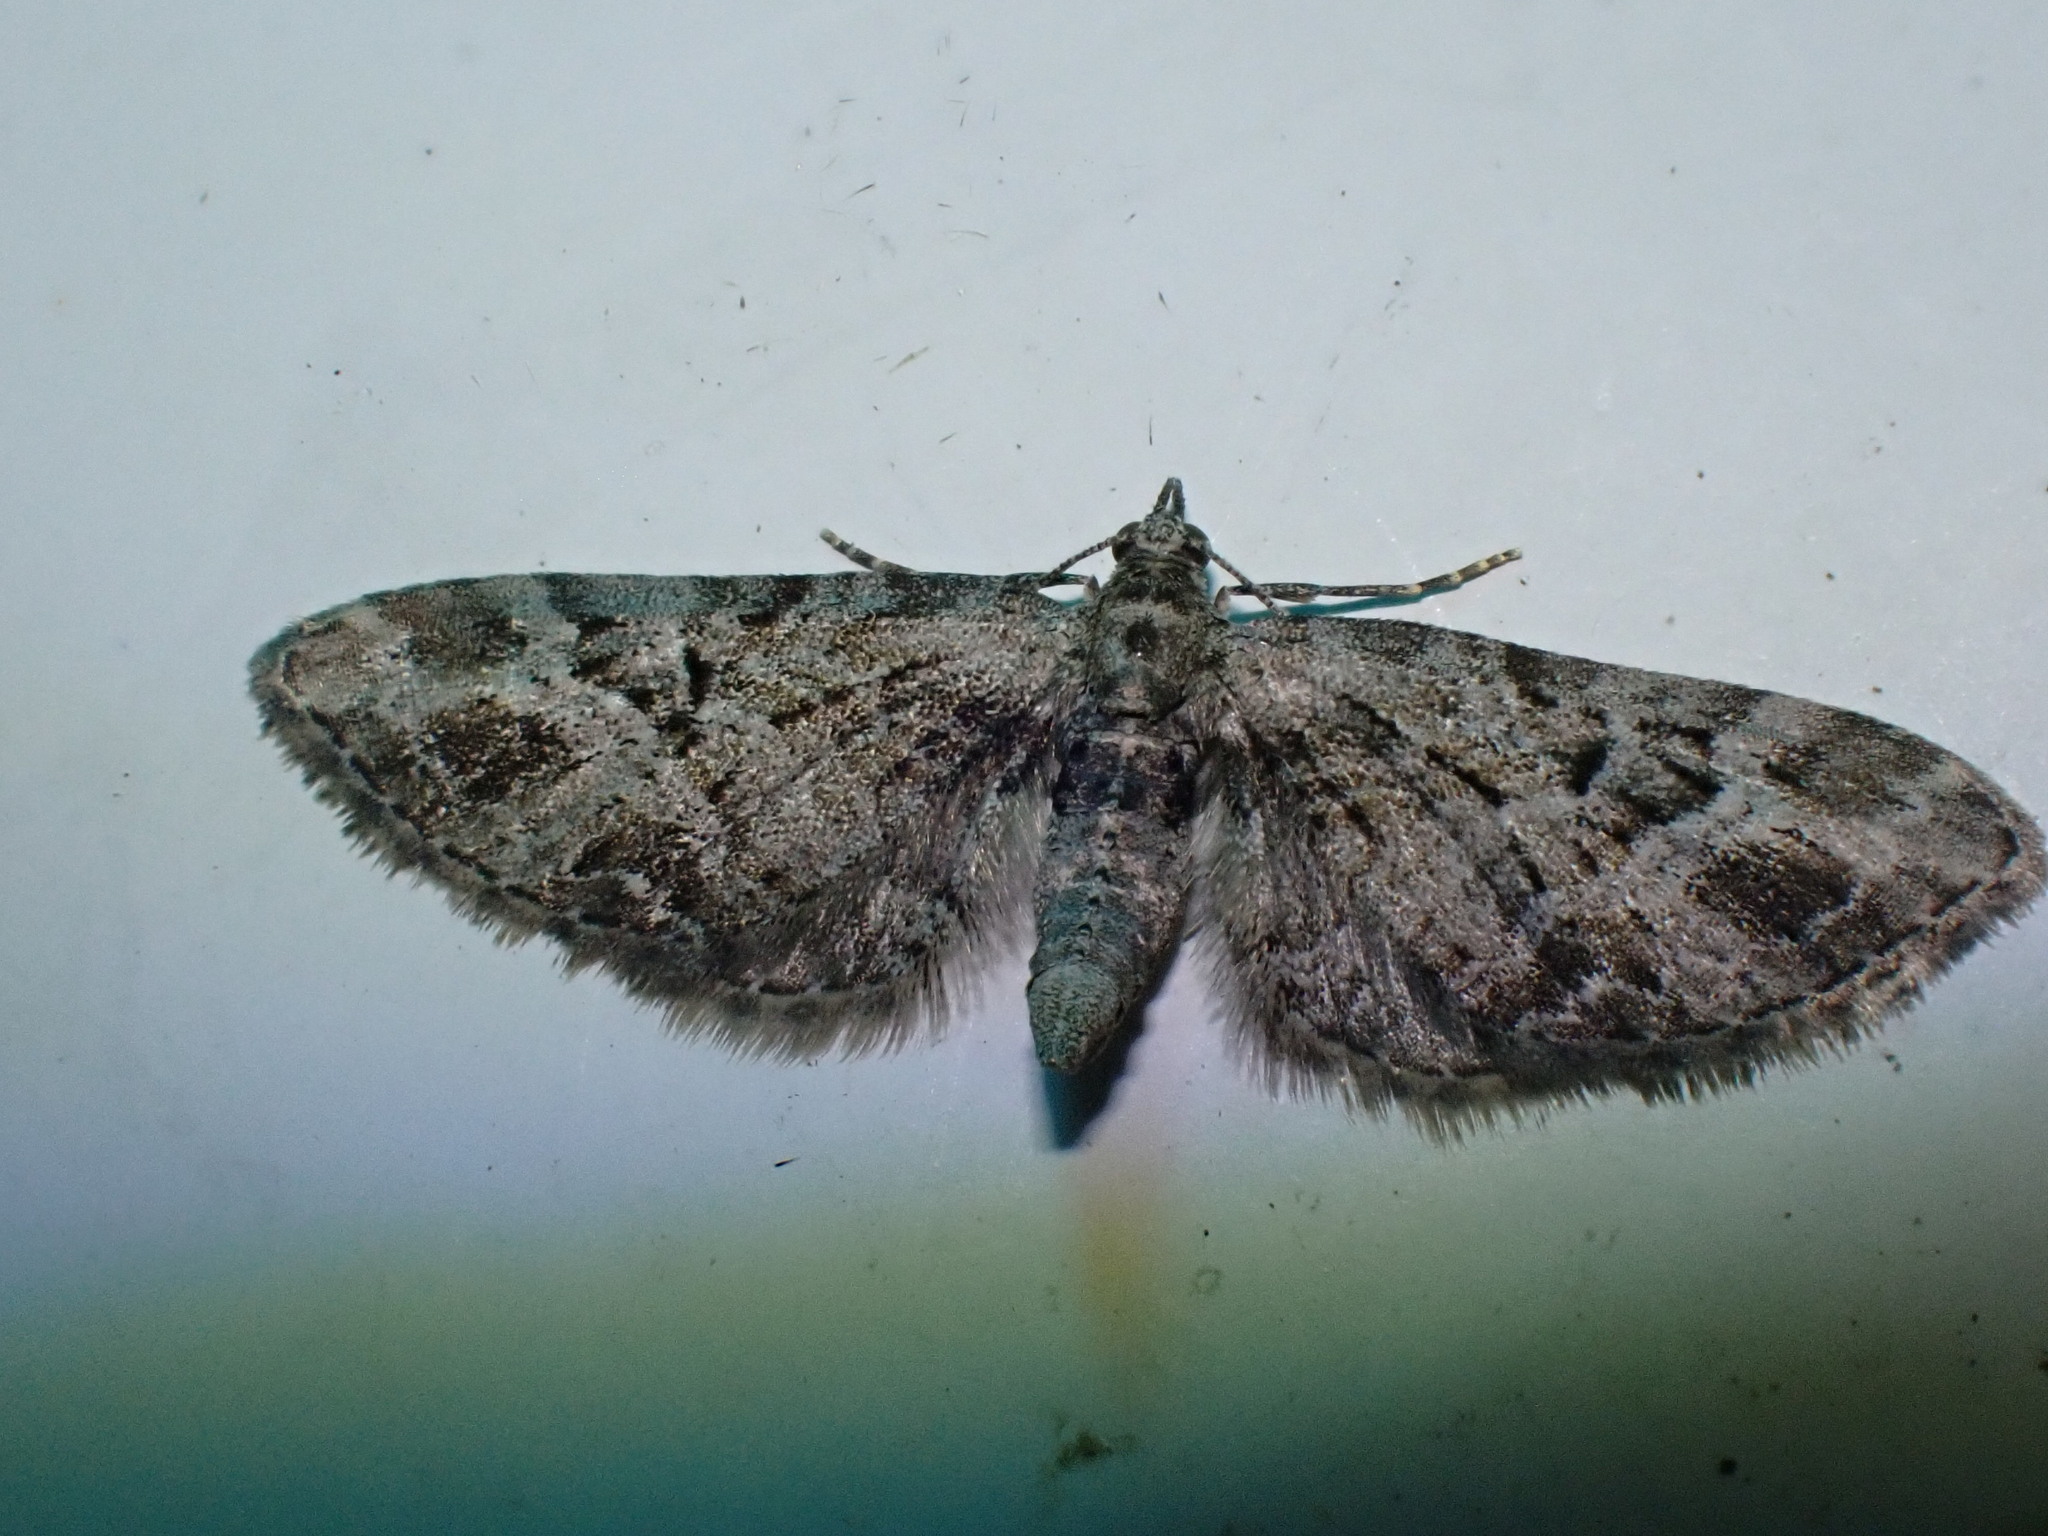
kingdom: Animalia
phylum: Arthropoda
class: Insecta
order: Lepidoptera
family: Geometridae
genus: Eupithecia
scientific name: Eupithecia exiguata
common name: Mottled pug
